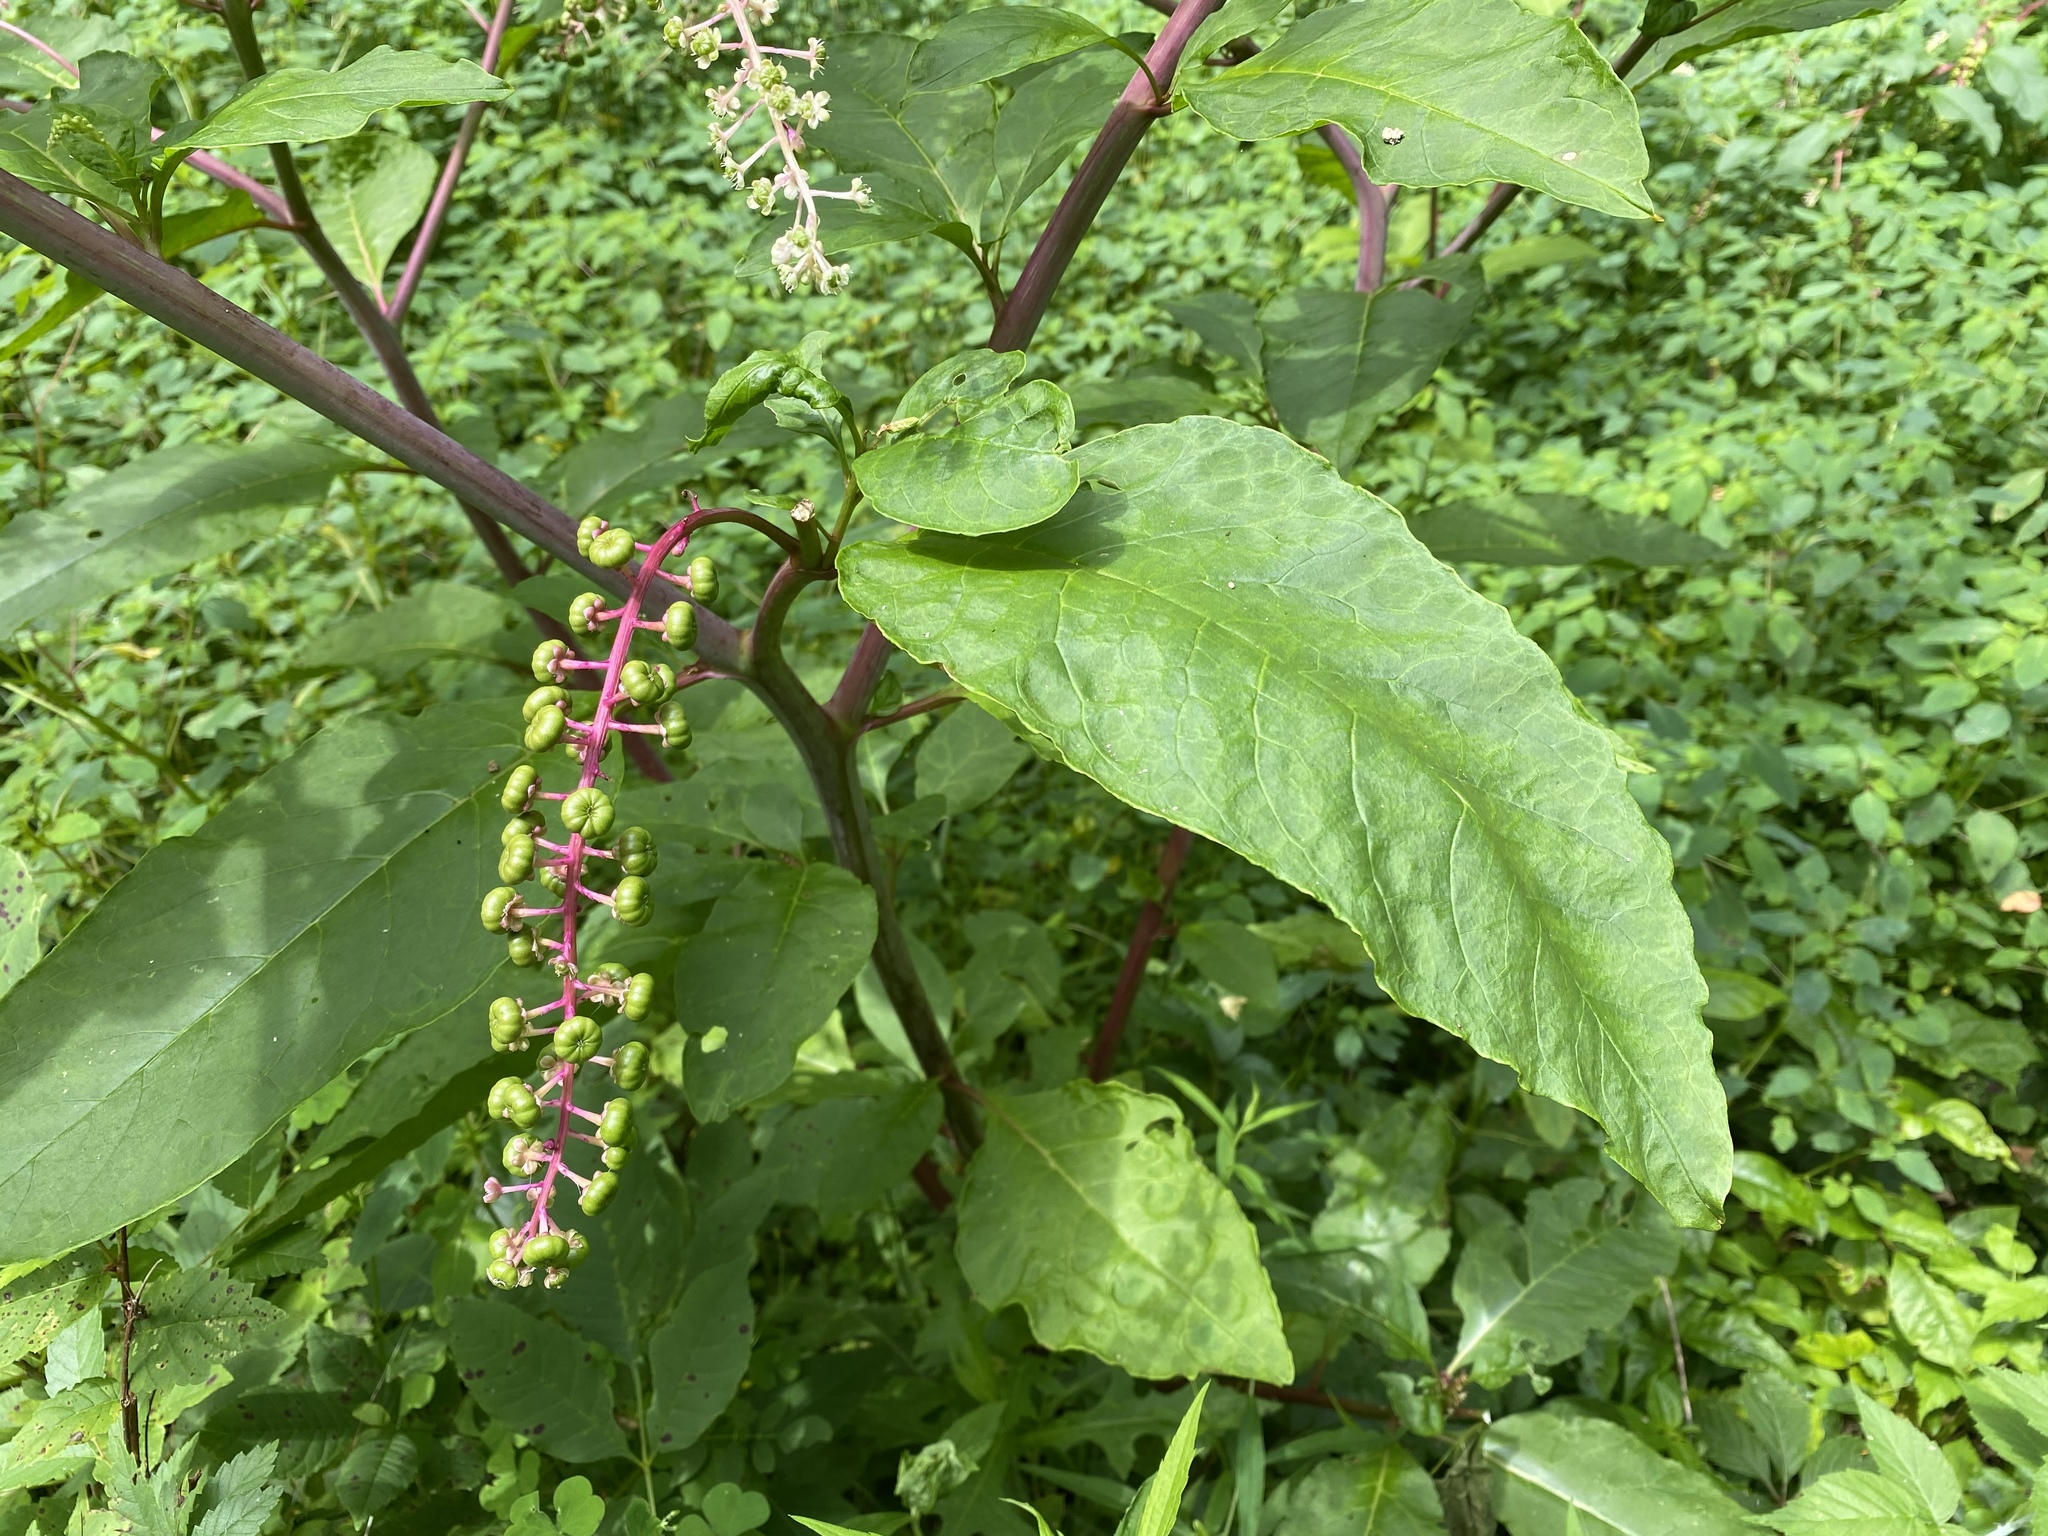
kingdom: Plantae
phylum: Tracheophyta
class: Magnoliopsida
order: Caryophyllales
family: Phytolaccaceae
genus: Phytolacca
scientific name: Phytolacca americana
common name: American pokeweed
